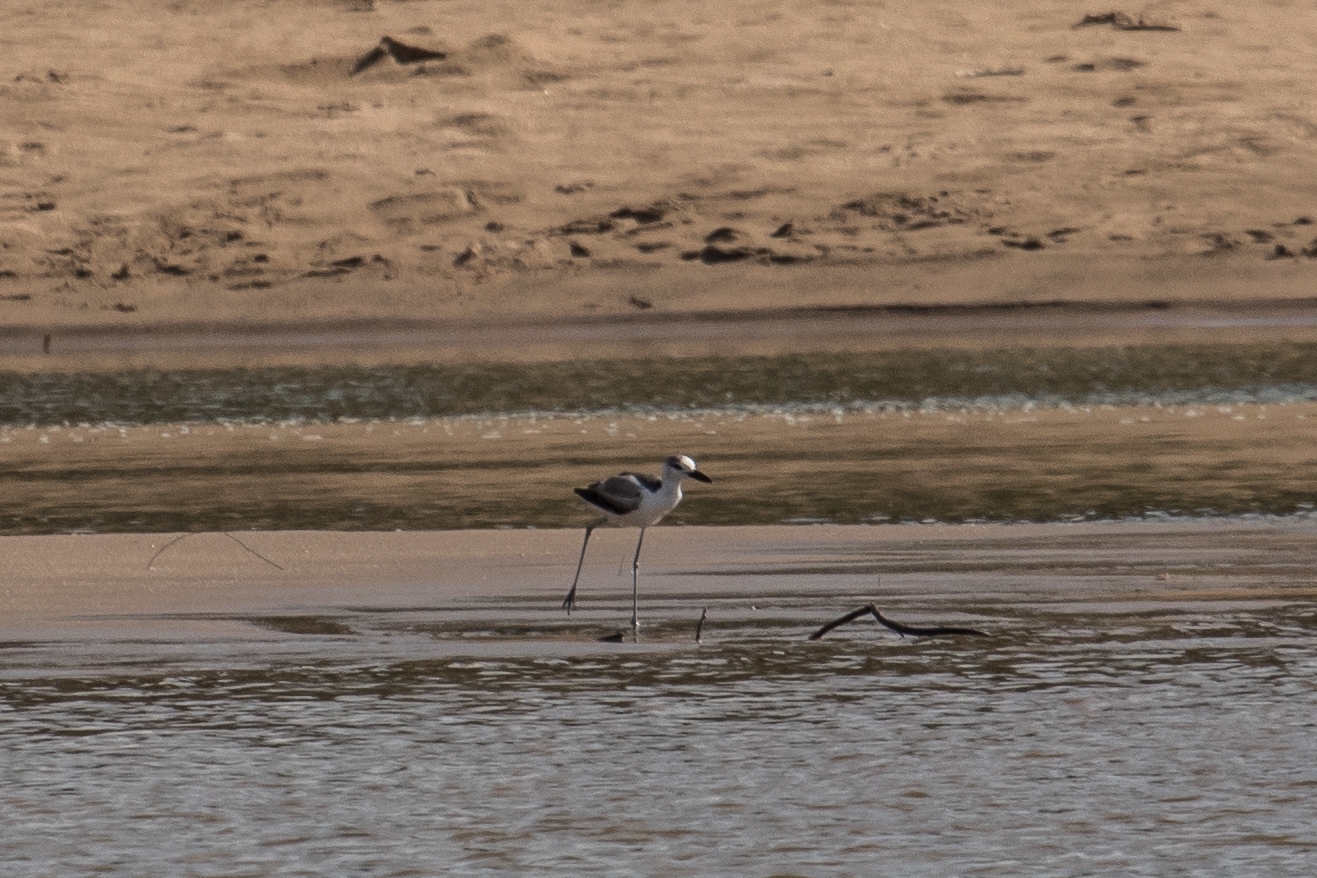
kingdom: Animalia
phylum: Chordata
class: Aves
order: Charadriiformes
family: Dromadidae
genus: Dromas
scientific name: Dromas ardeola
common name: Crab-plover
